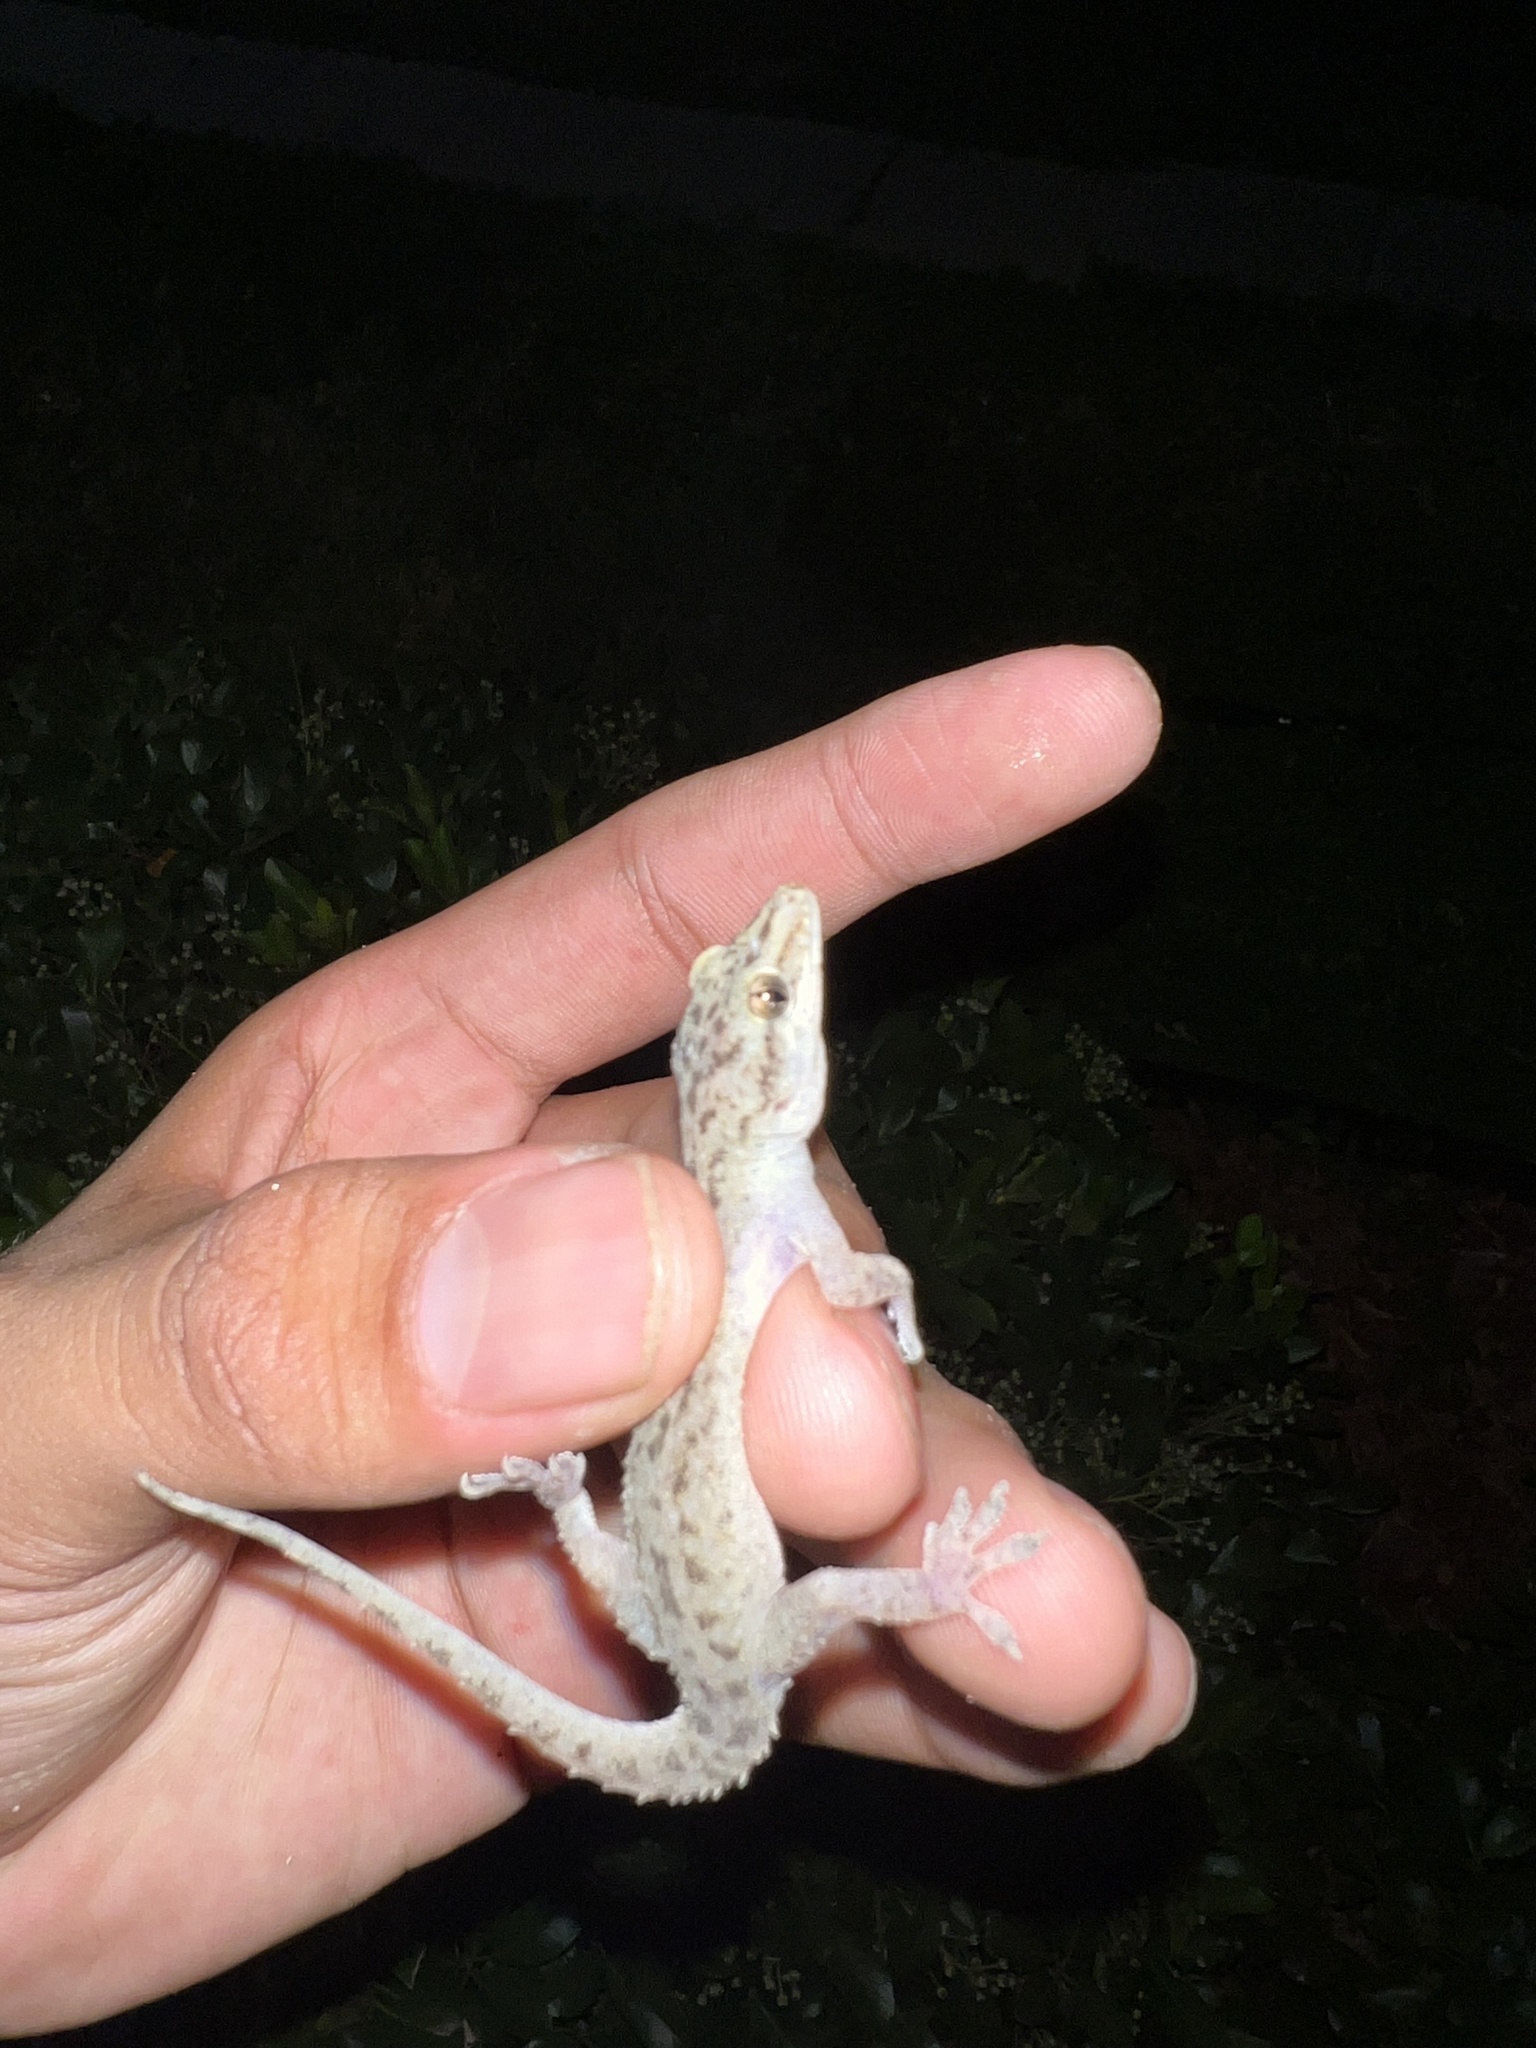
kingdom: Animalia
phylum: Chordata
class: Squamata
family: Gekkonidae
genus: Hemidactylus
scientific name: Hemidactylus parvimaculatus
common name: Spotted house gecko
